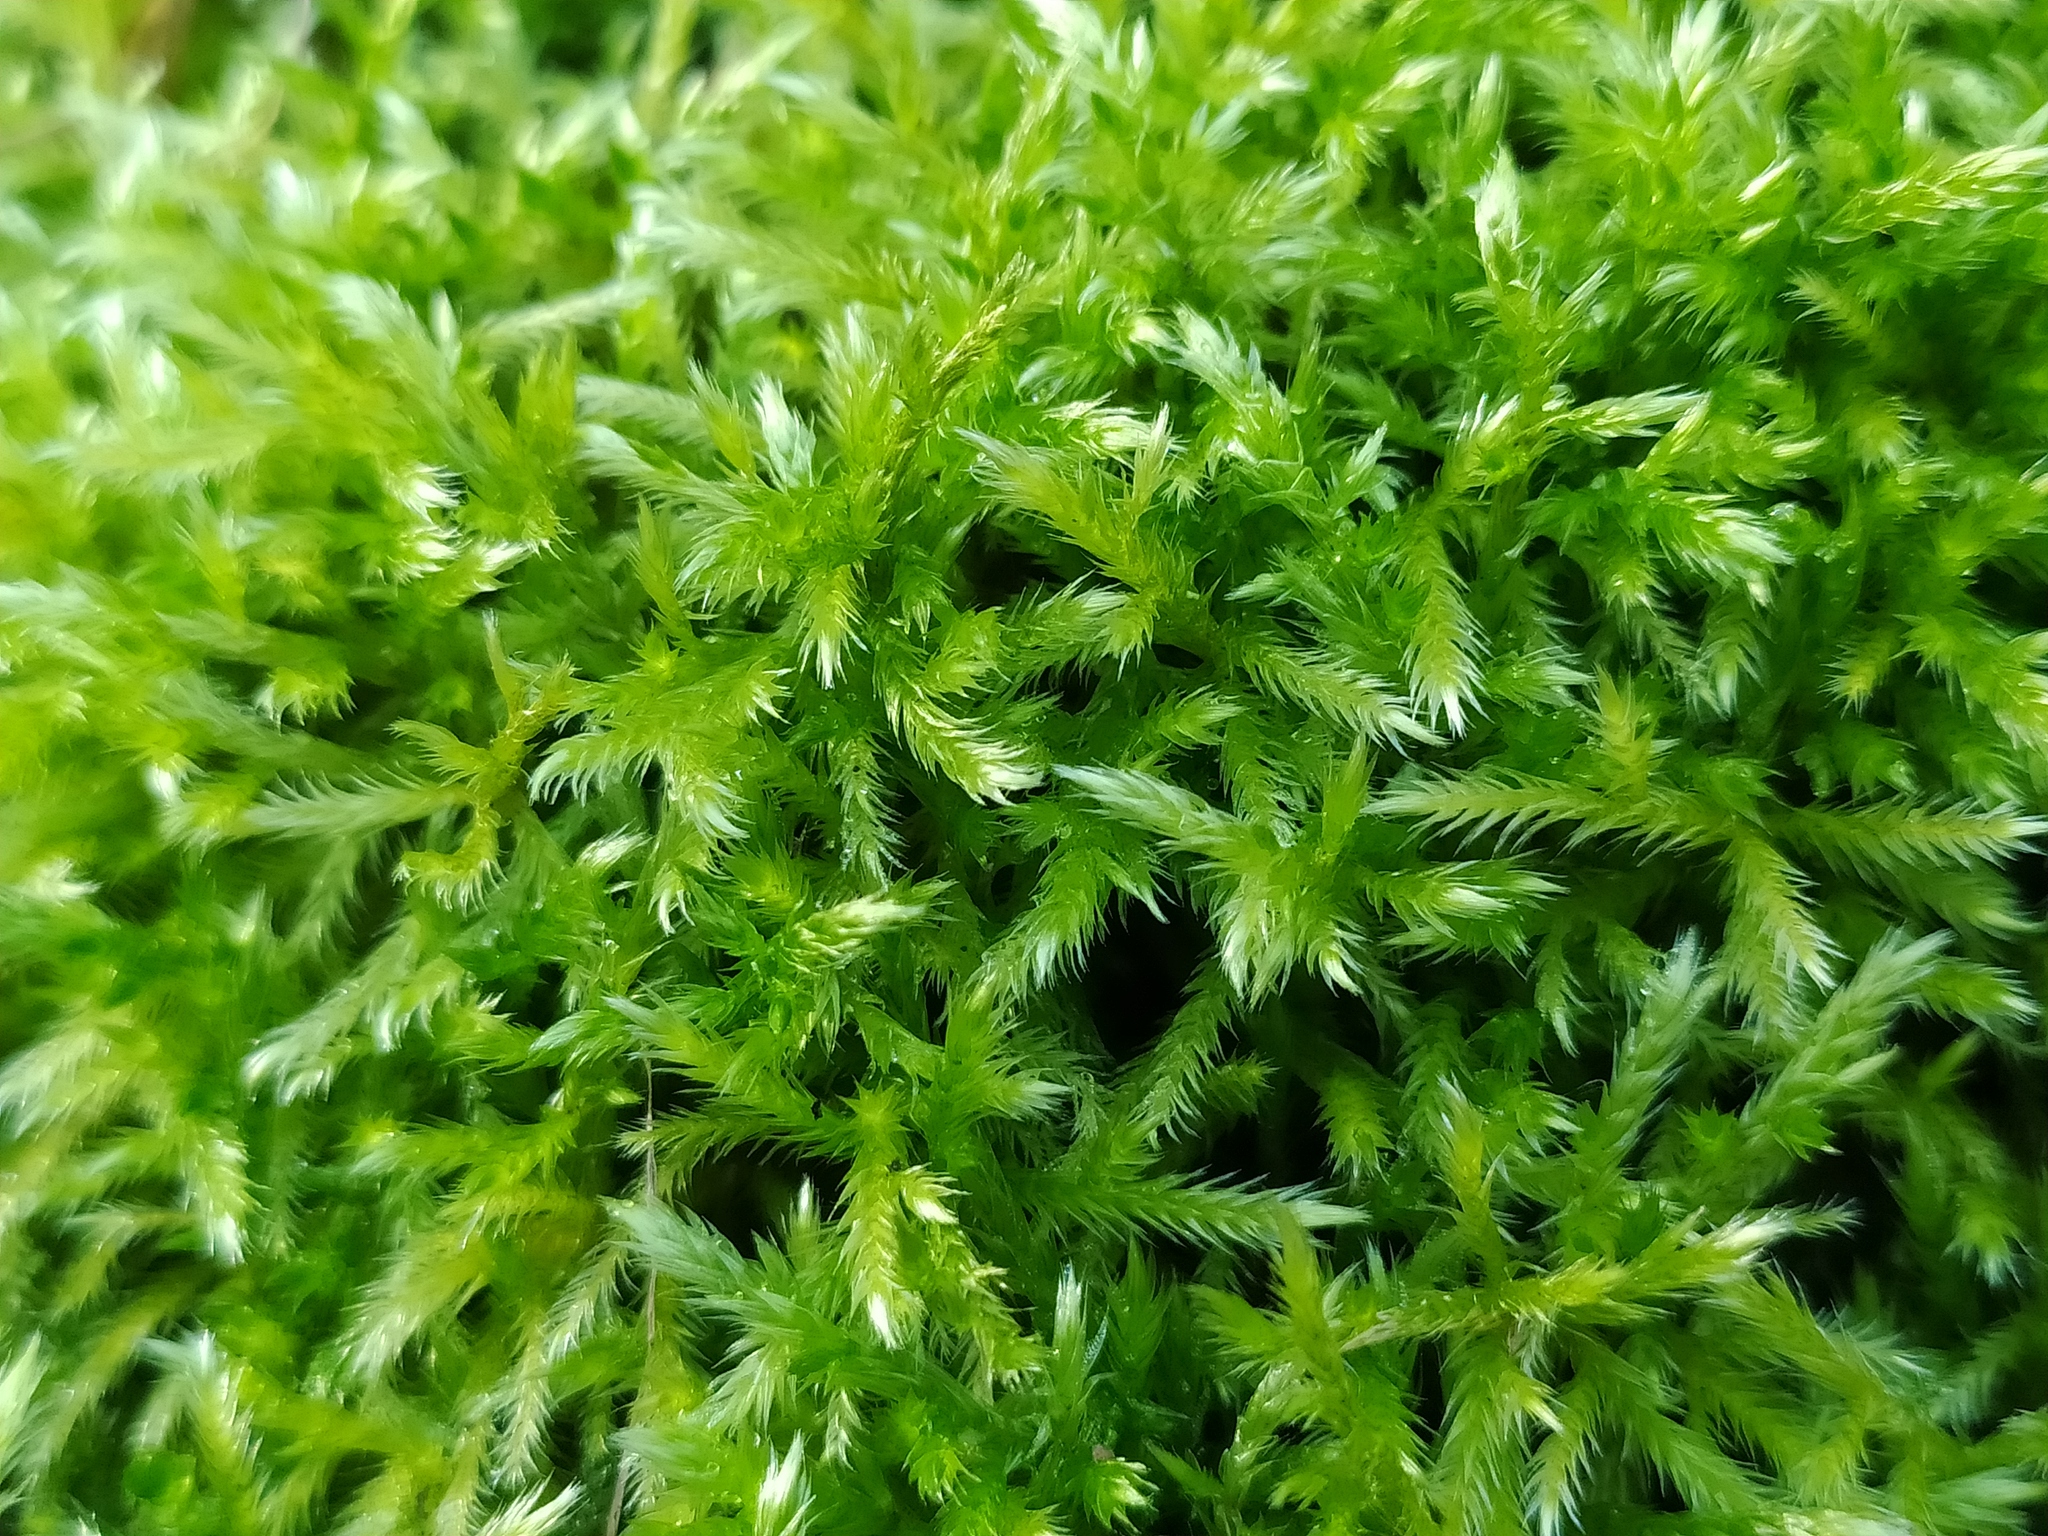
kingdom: Plantae
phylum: Bryophyta
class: Bryopsida
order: Hypnales
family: Brachytheciaceae
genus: Homalothecium
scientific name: Homalothecium lutescens
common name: Yellow feather-moss
